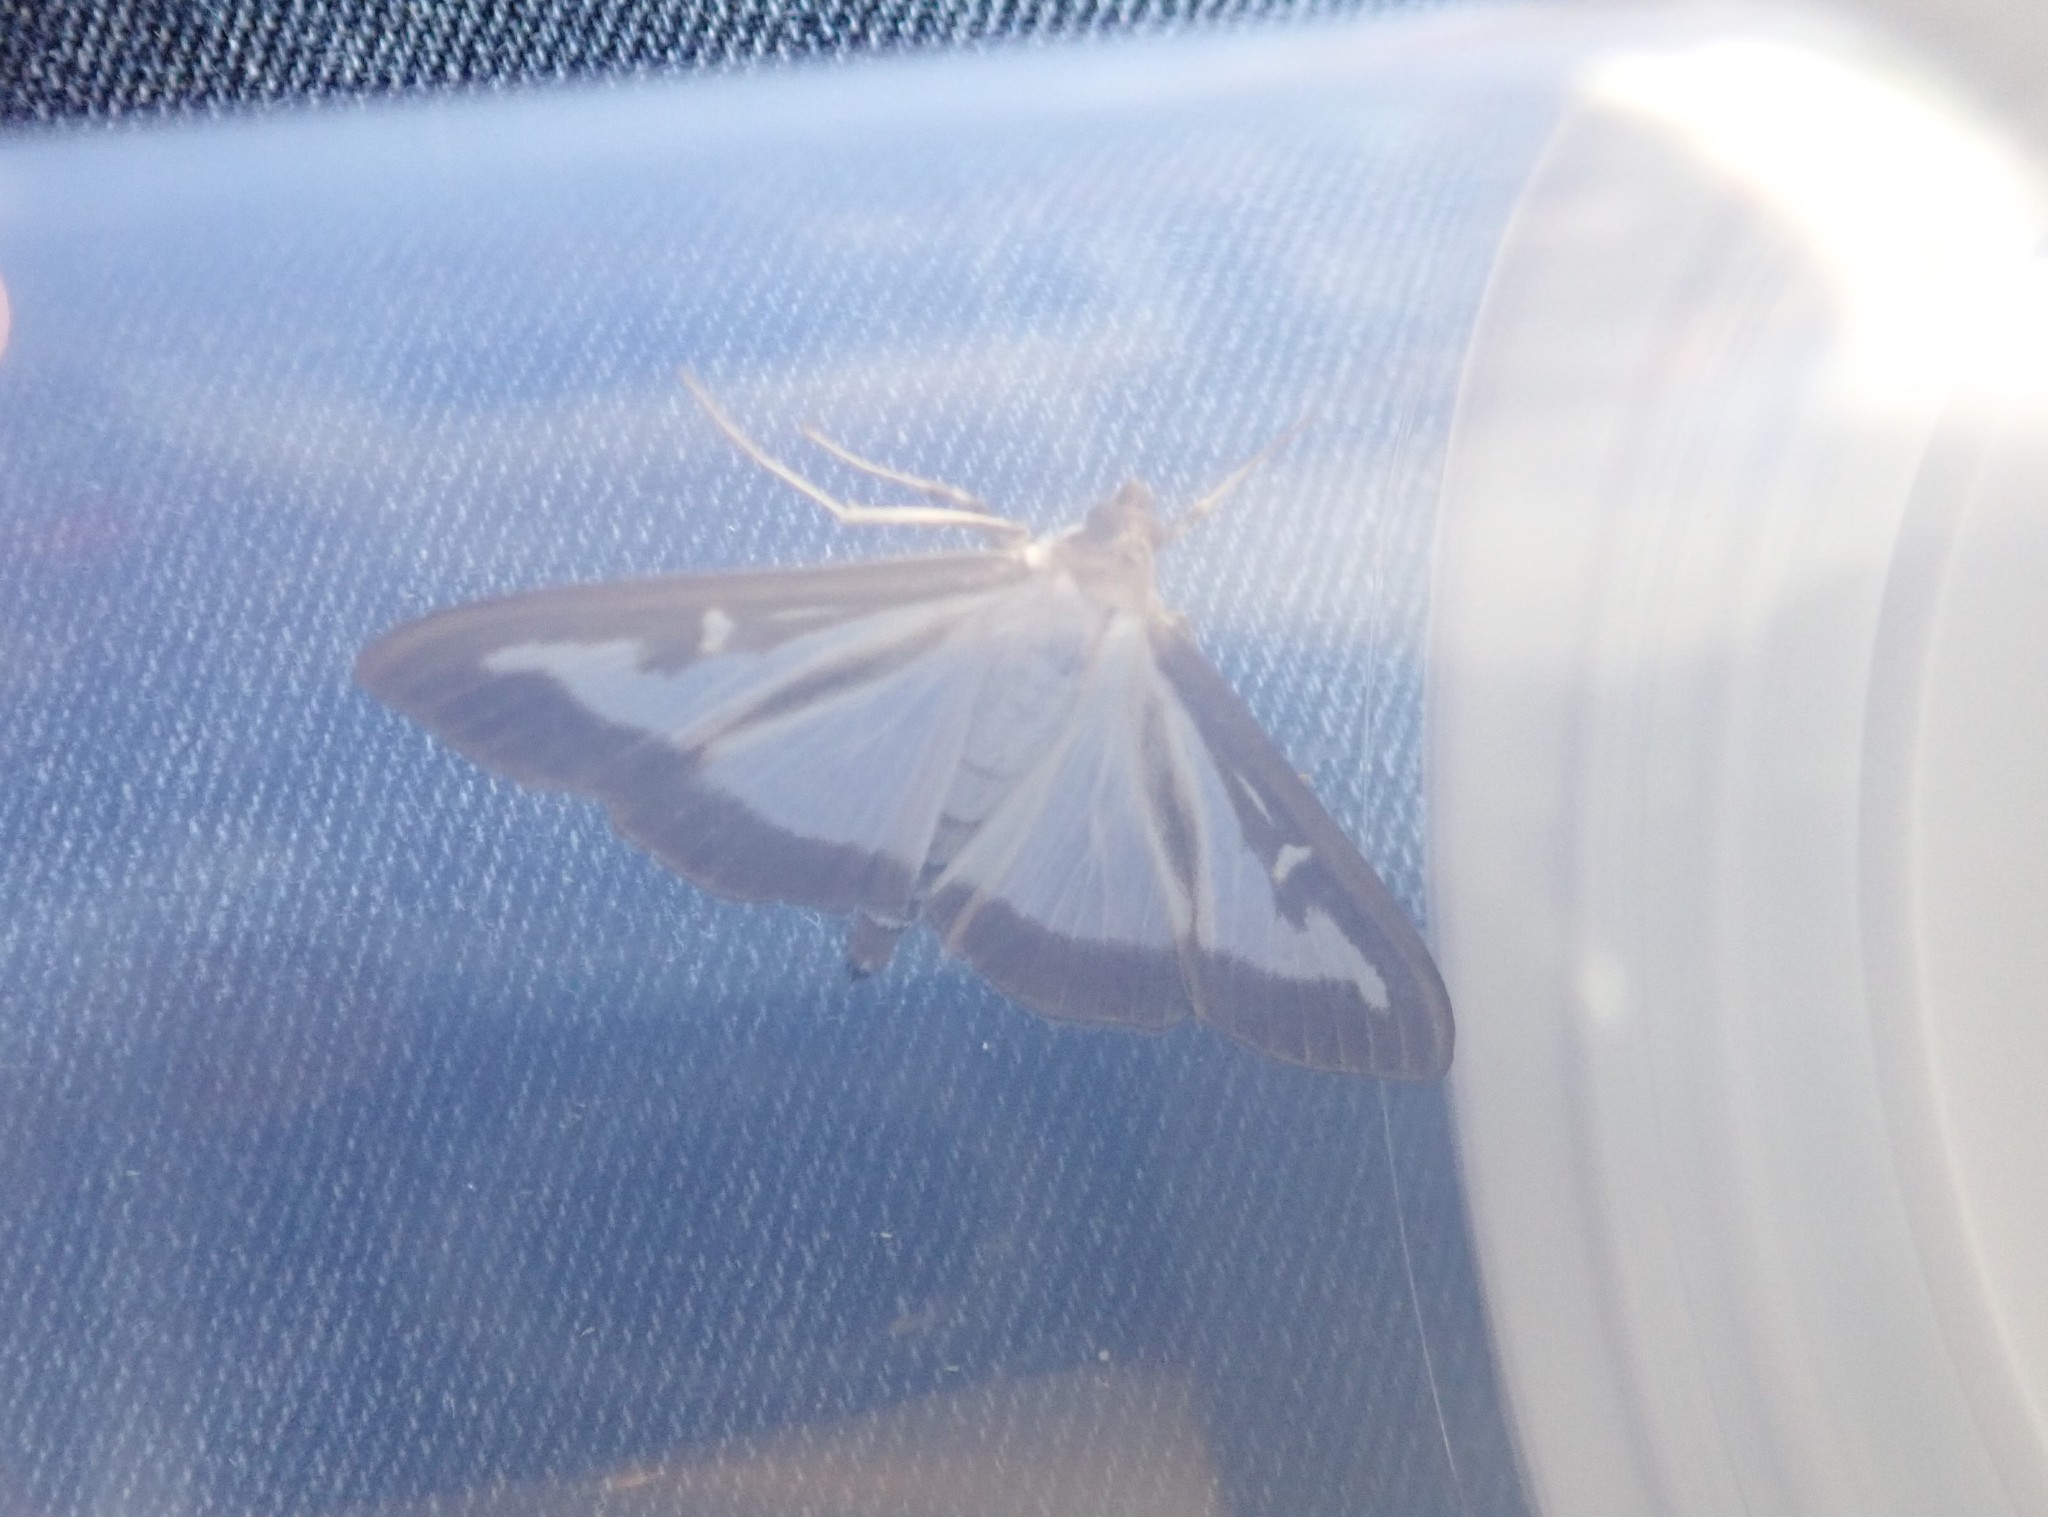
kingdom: Animalia
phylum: Arthropoda
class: Insecta
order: Lepidoptera
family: Crambidae
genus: Cydalima
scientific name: Cydalima perspectalis
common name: Box tree moth
